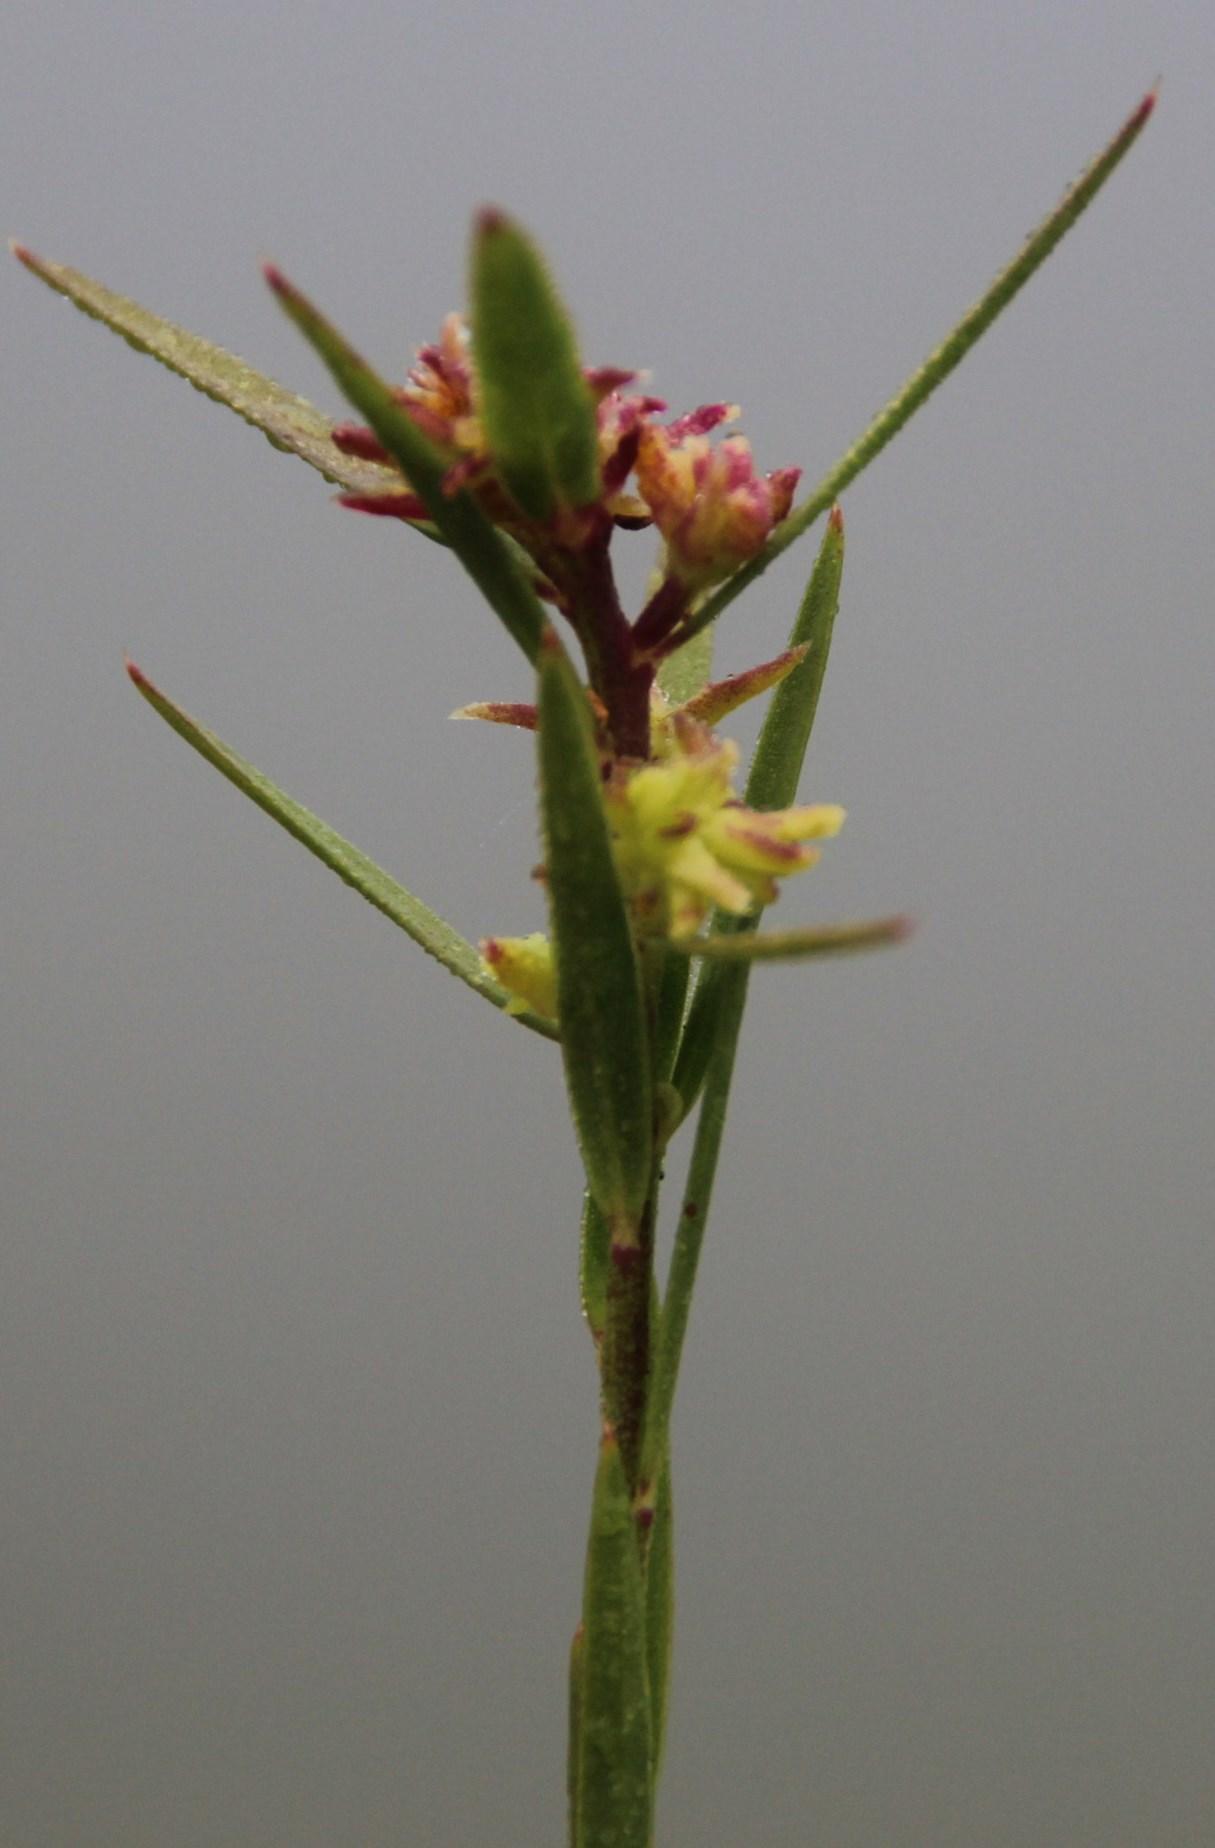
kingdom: Plantae
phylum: Tracheophyta
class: Magnoliopsida
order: Malpighiales
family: Peraceae
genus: Clutia
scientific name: Clutia ericoides
